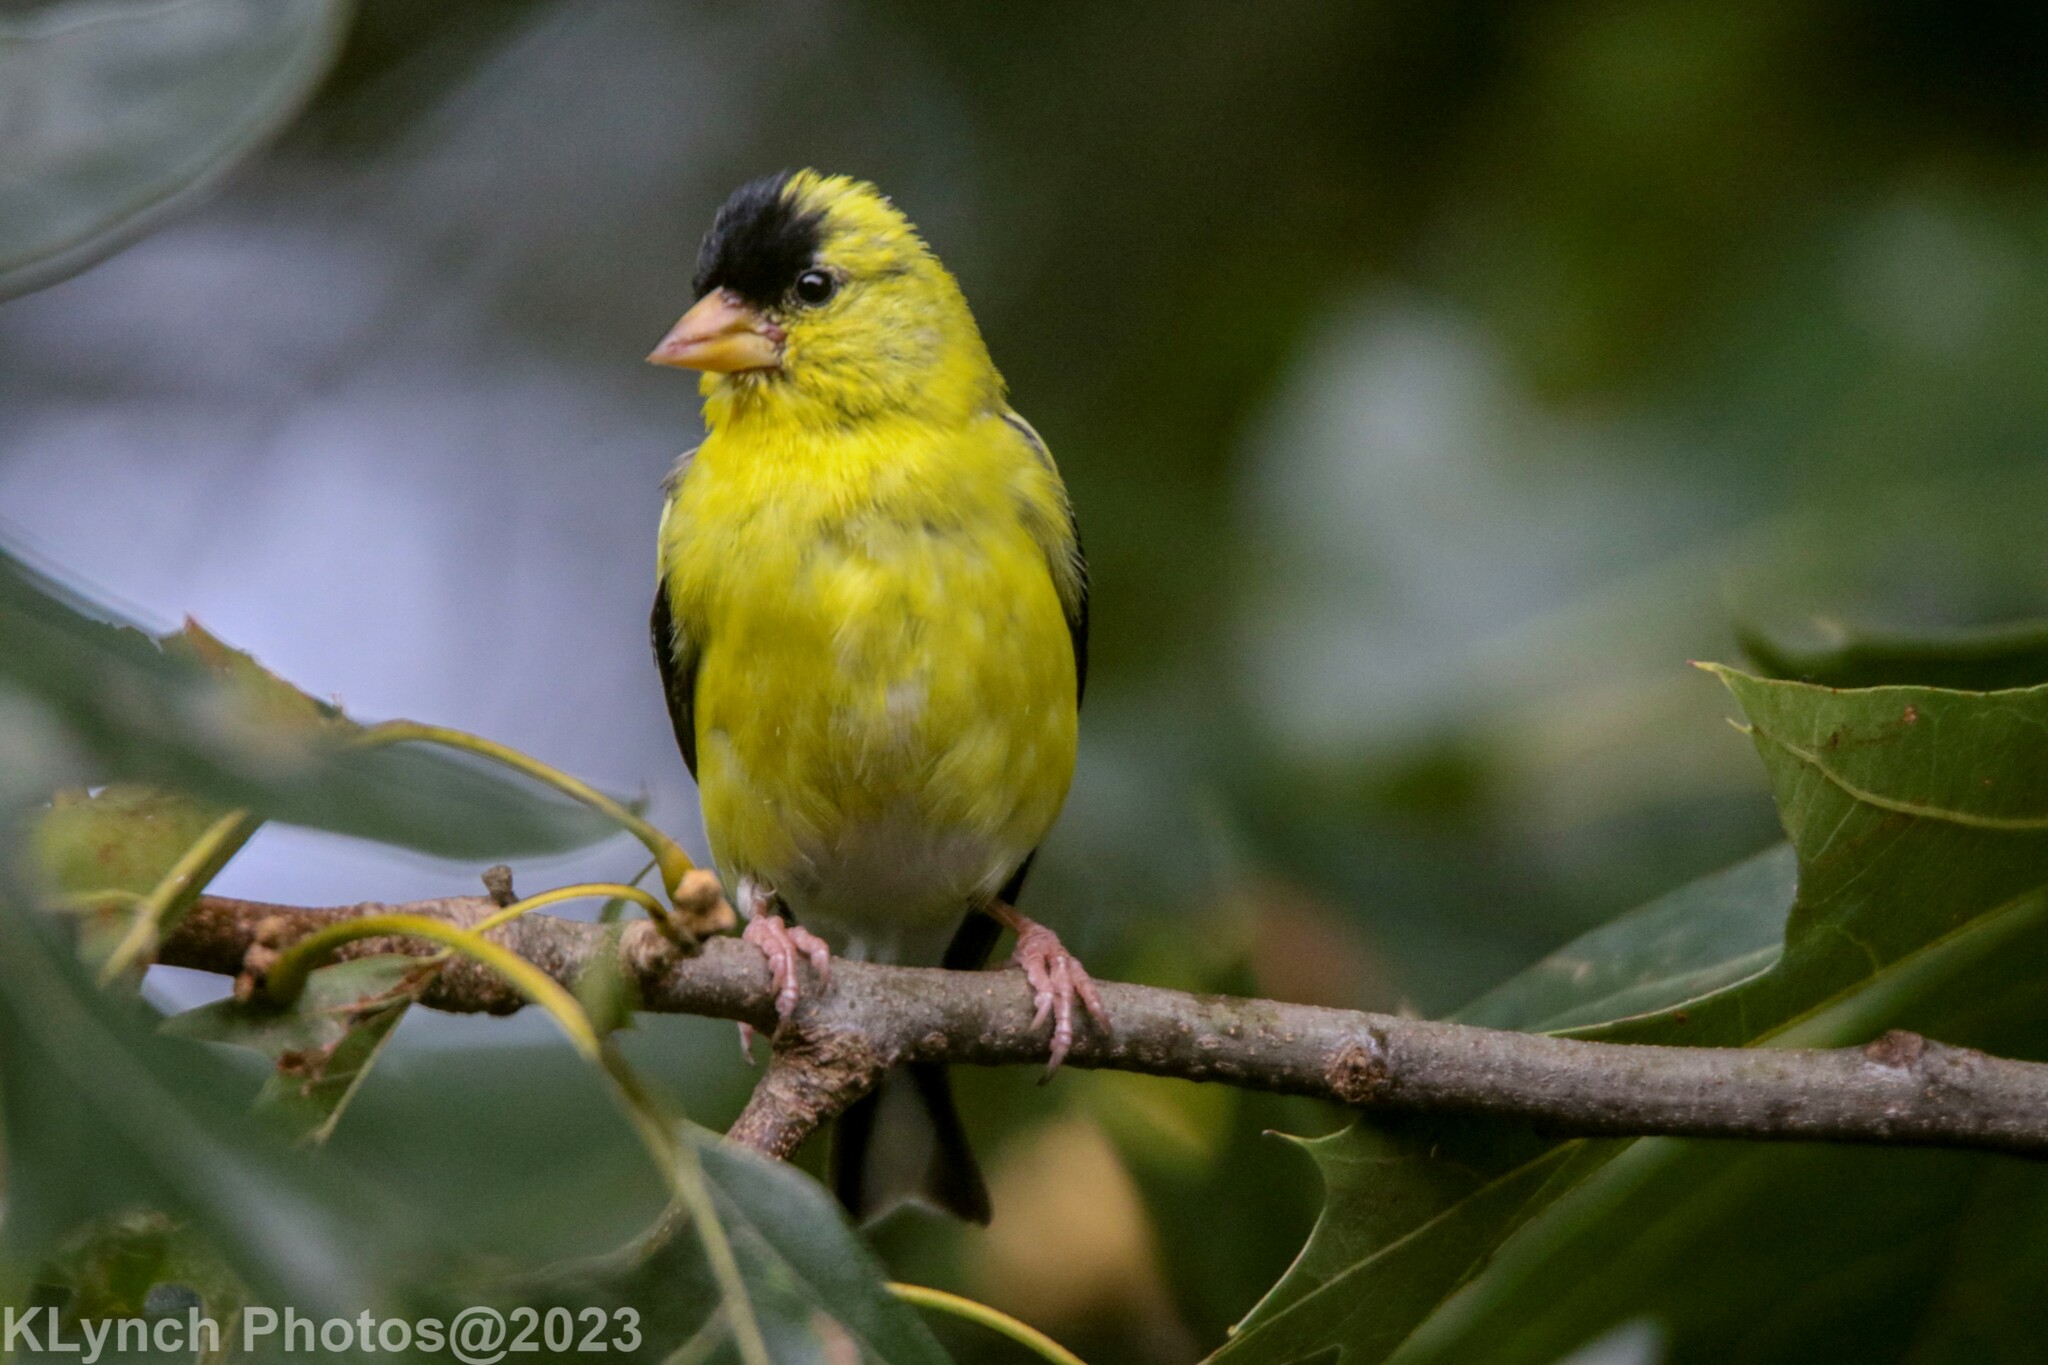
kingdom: Animalia
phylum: Chordata
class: Aves
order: Passeriformes
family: Fringillidae
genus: Spinus
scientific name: Spinus tristis
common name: American goldfinch
